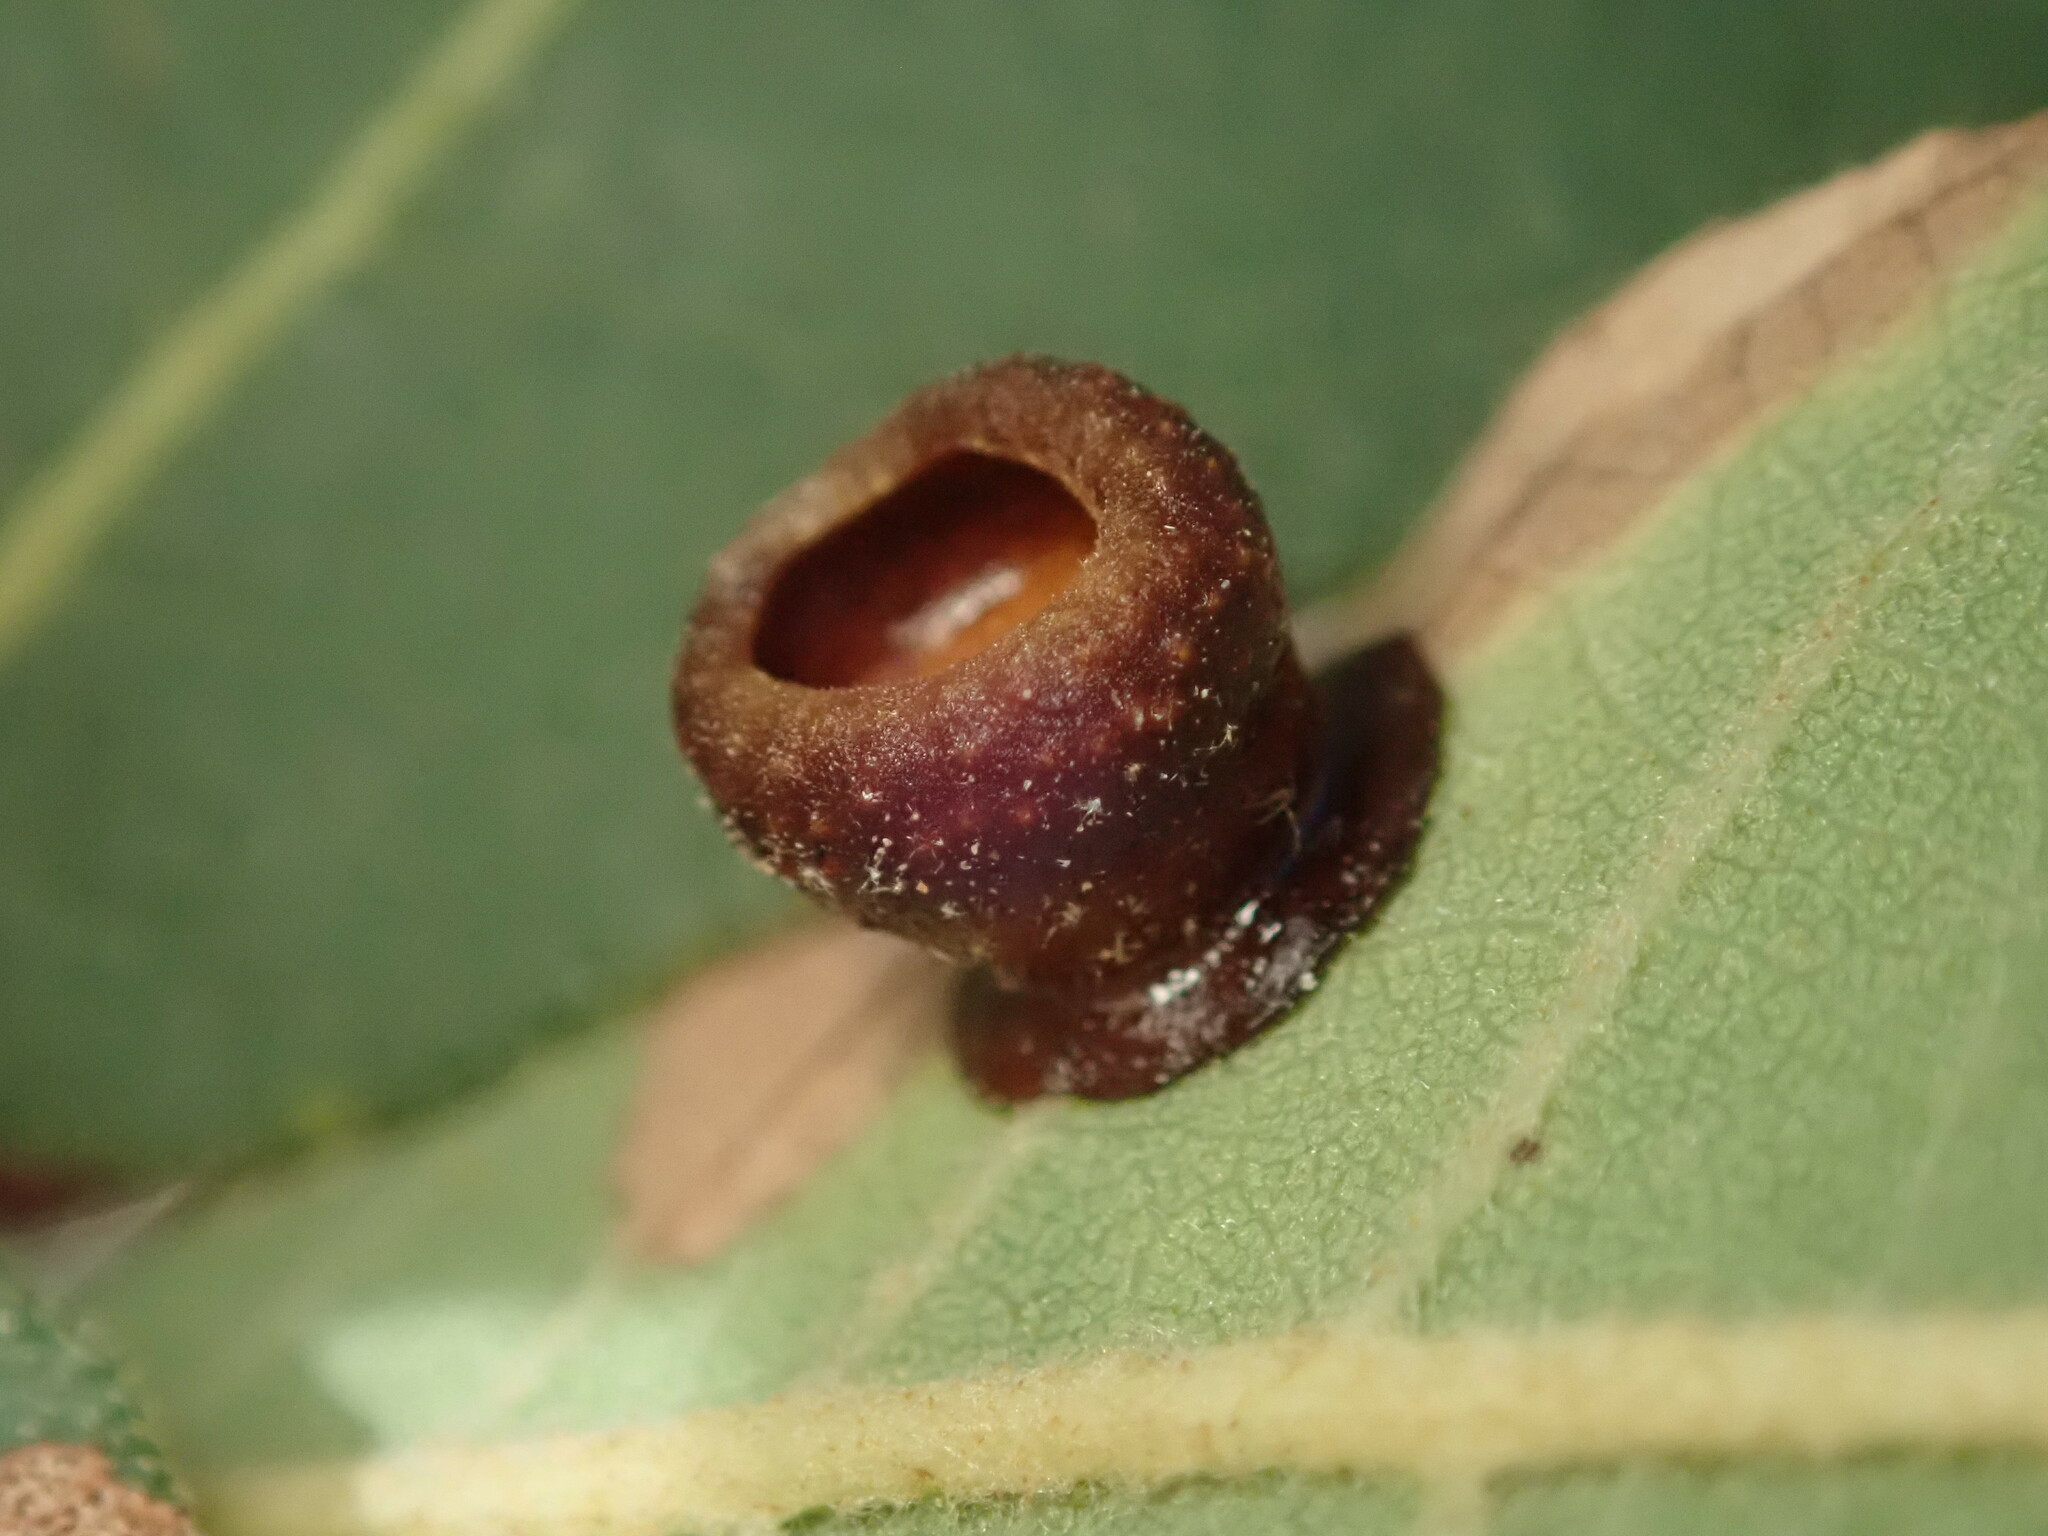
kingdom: Animalia
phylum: Arthropoda
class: Insecta
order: Hymenoptera
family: Cynipidae
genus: Andricus
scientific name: Andricus
